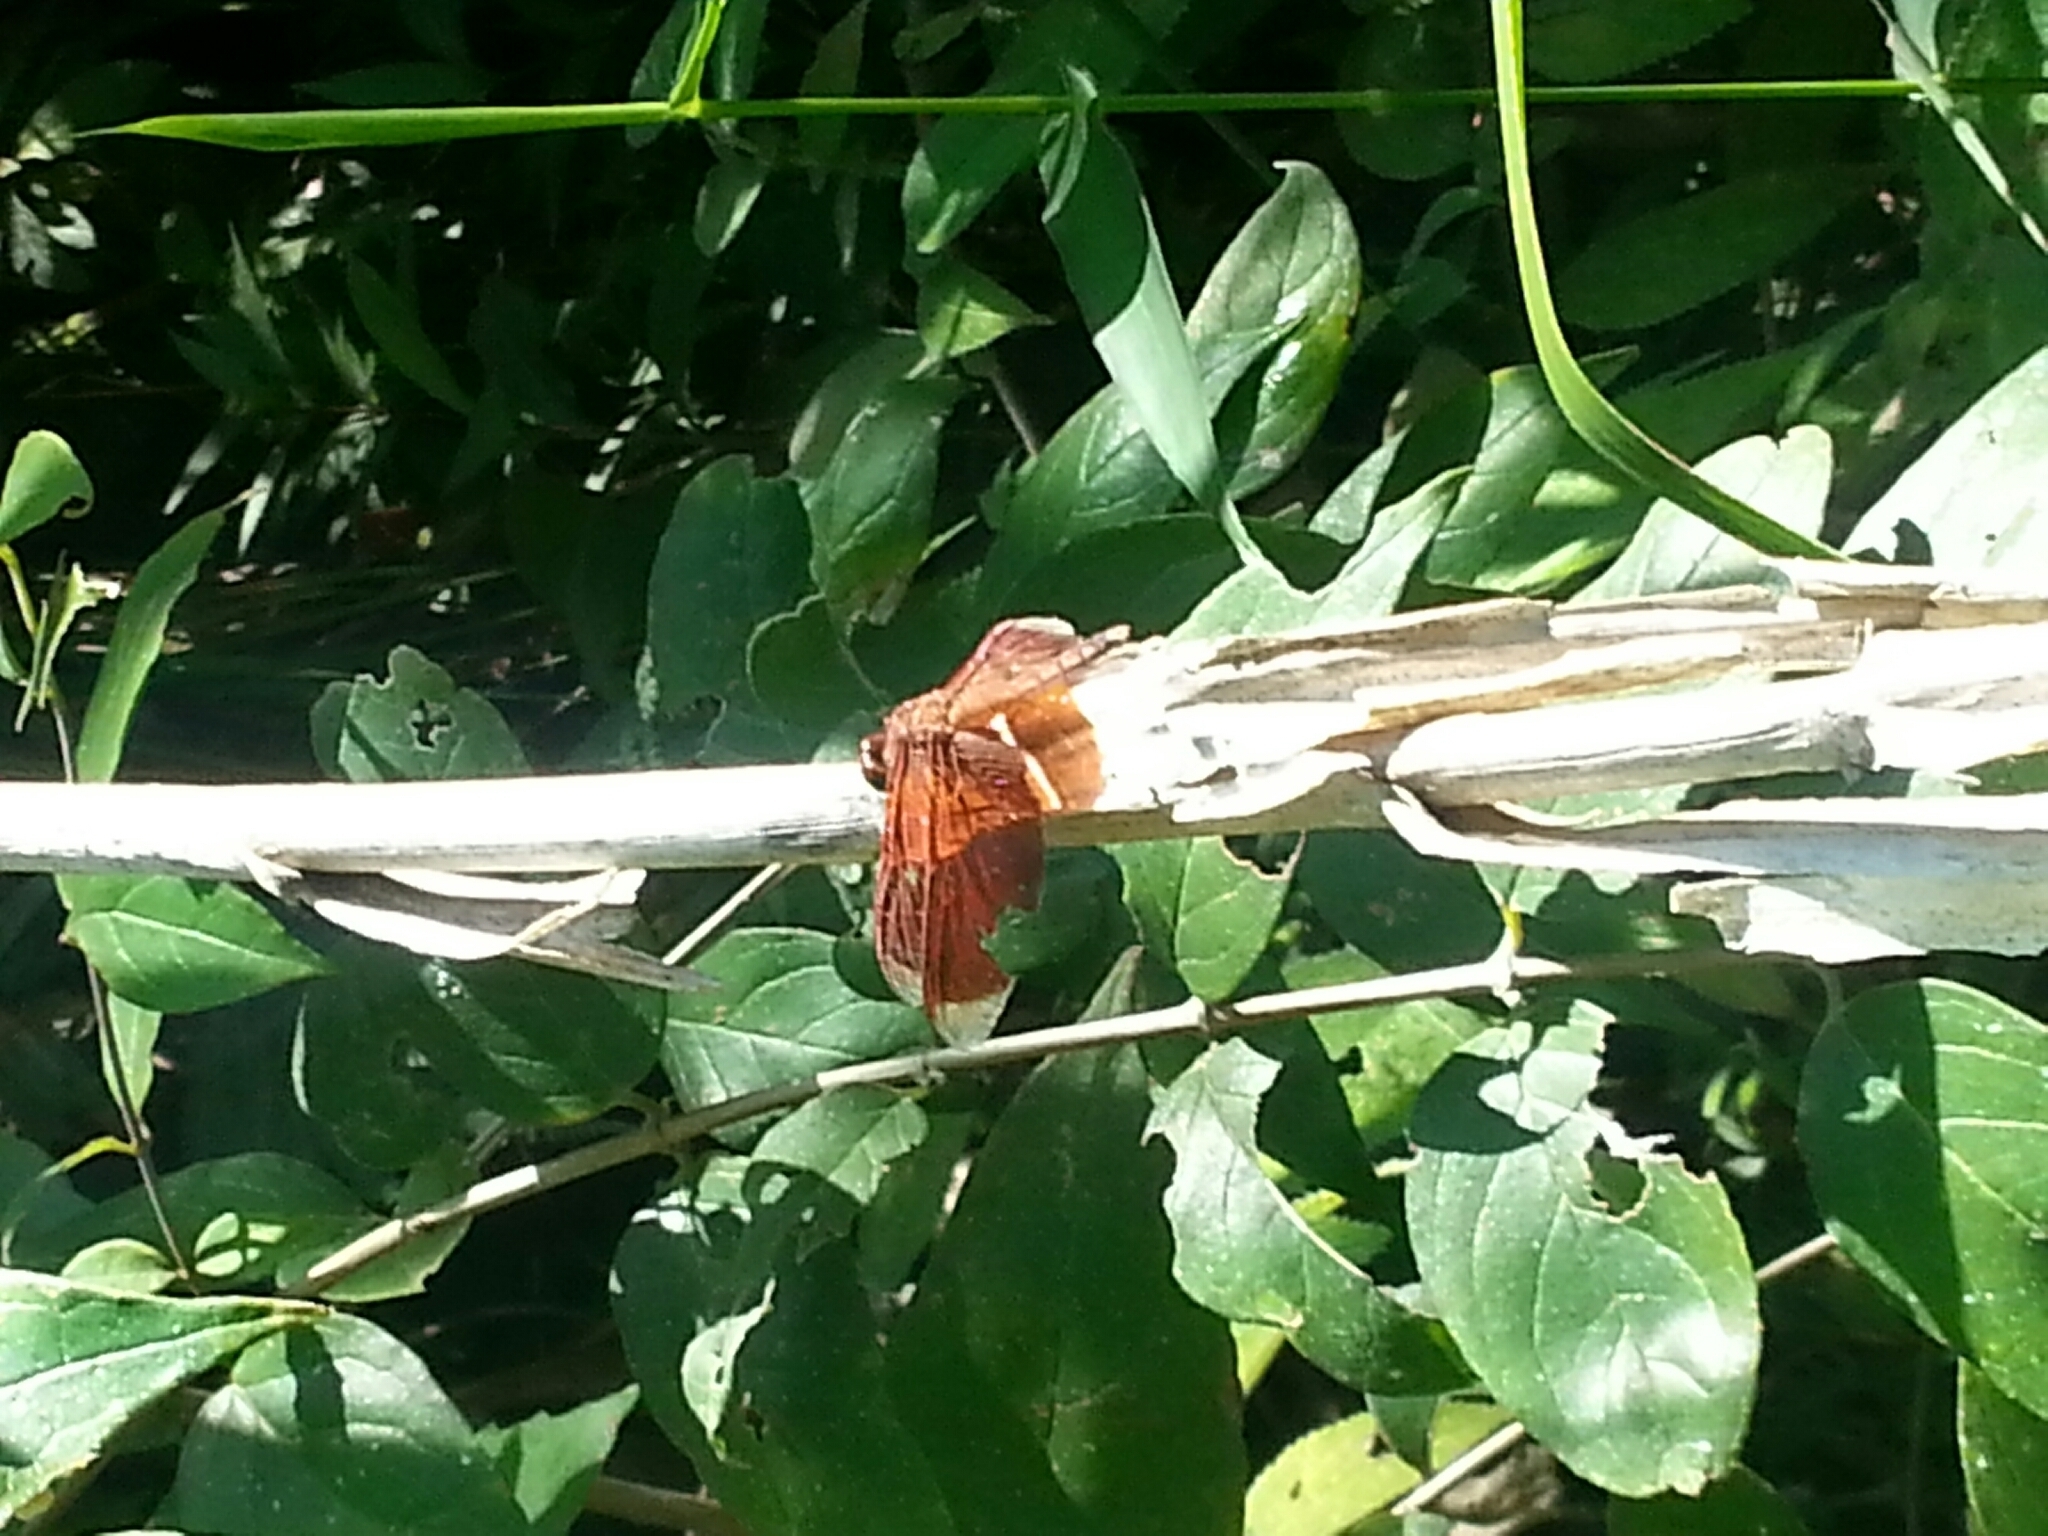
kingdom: Animalia
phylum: Arthropoda
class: Insecta
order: Odonata
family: Libellulidae
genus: Neurothemis
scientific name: Neurothemis ramburii
